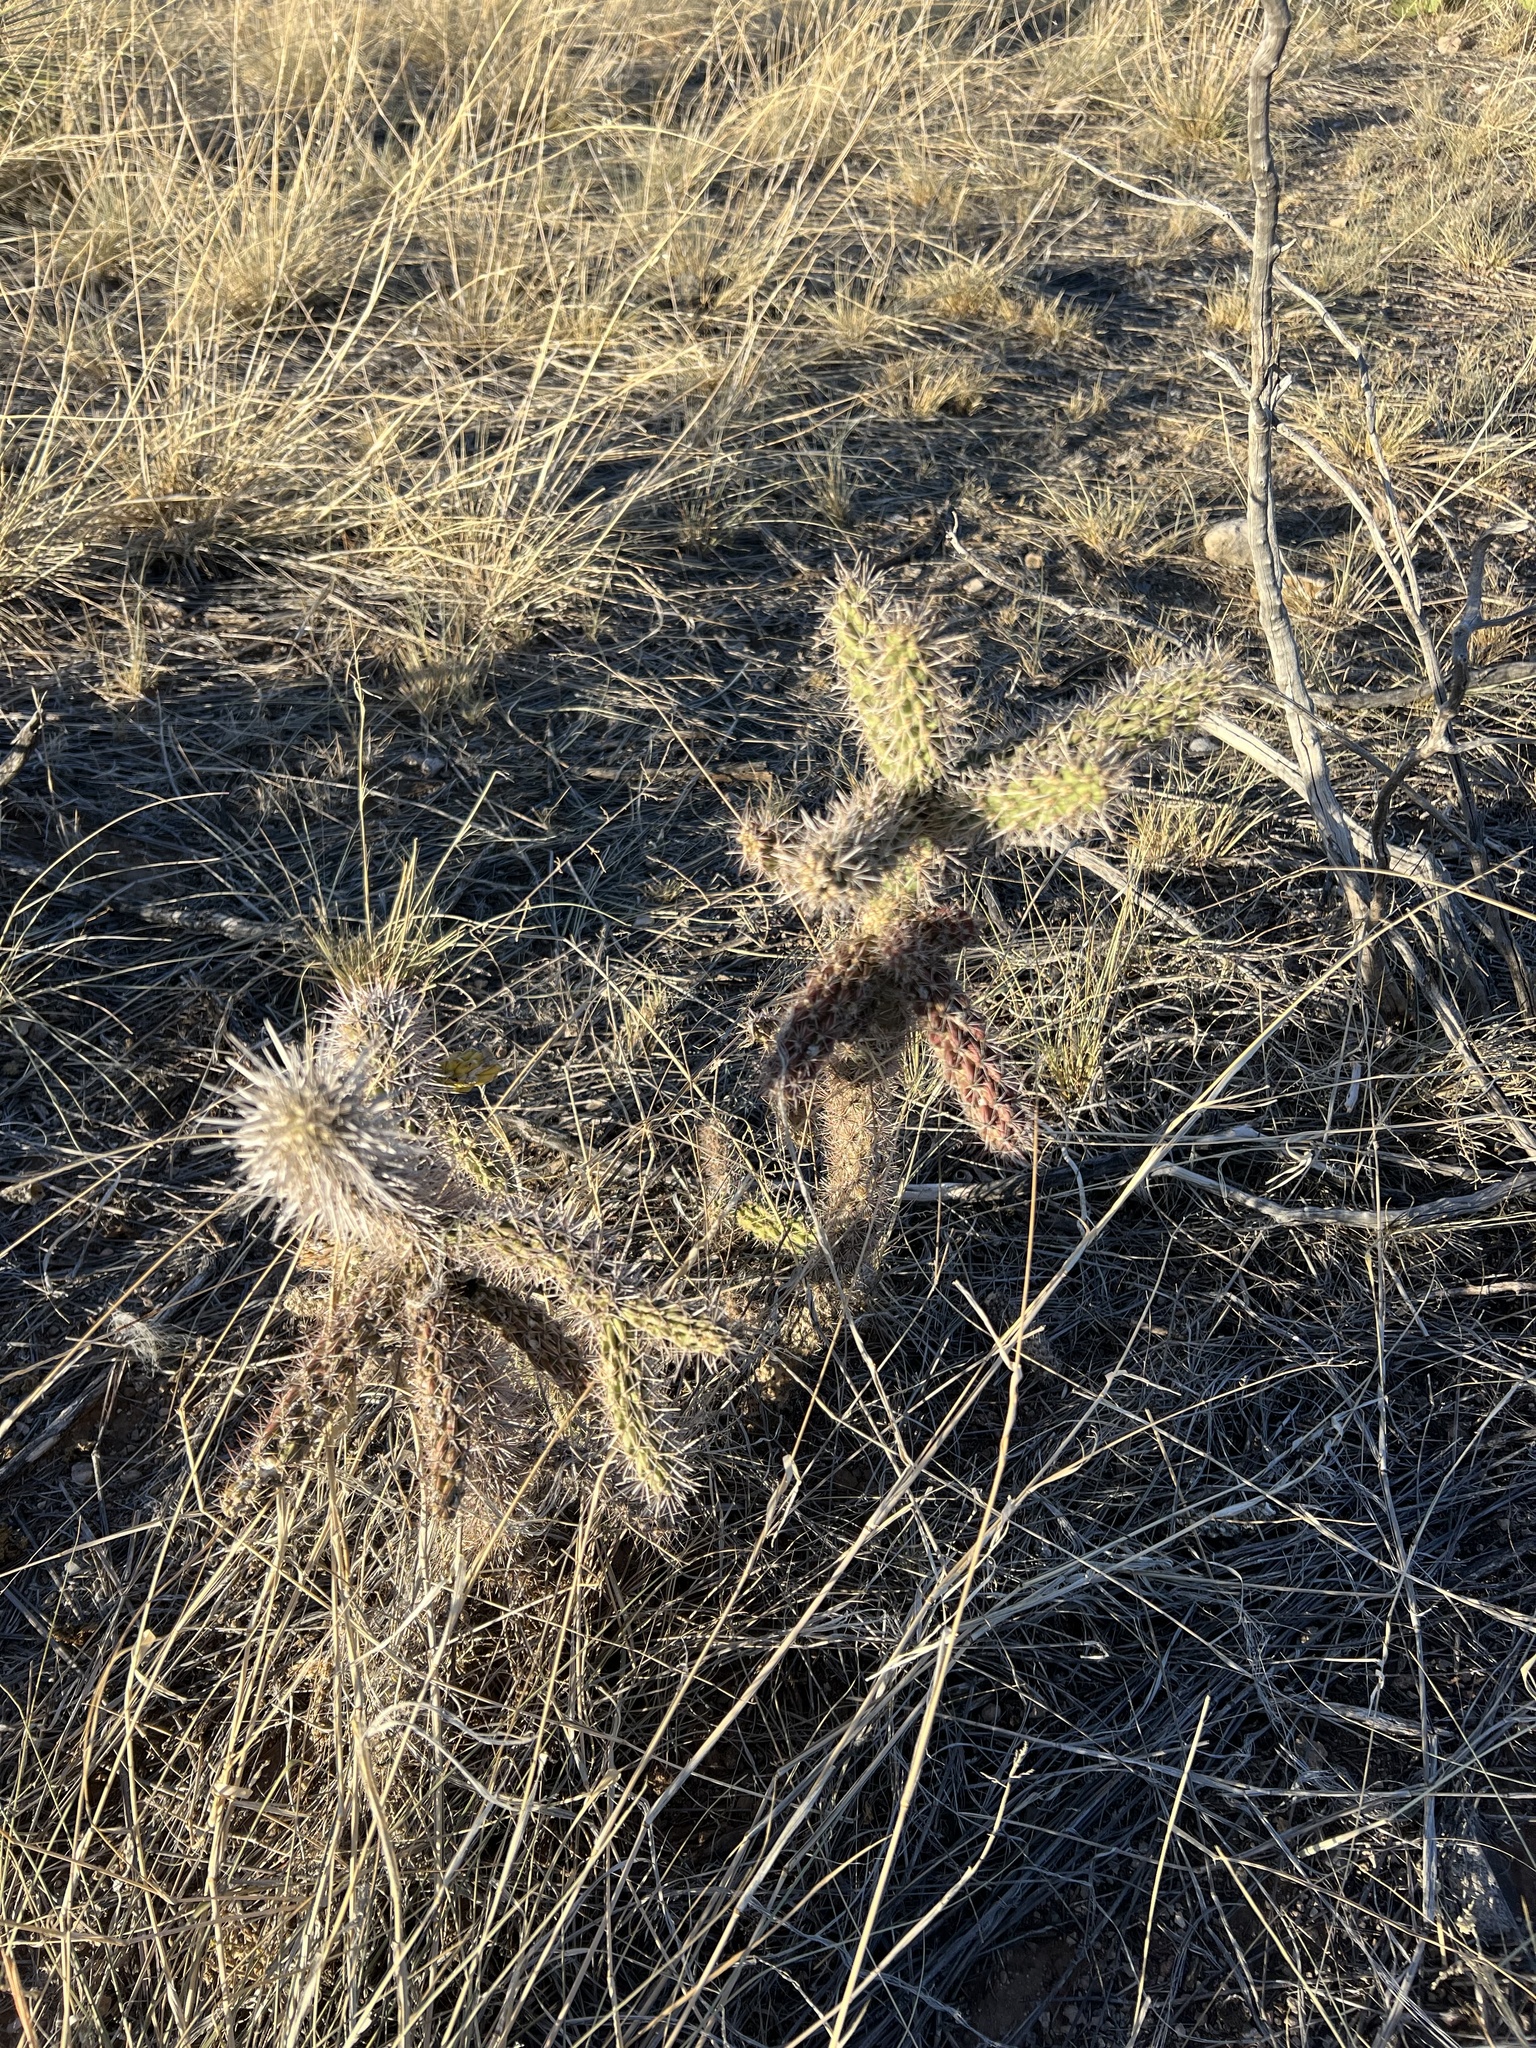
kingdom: Plantae
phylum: Tracheophyta
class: Magnoliopsida
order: Caryophyllales
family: Cactaceae
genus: Cylindropuntia
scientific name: Cylindropuntia imbricata
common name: Candelabrum cactus
